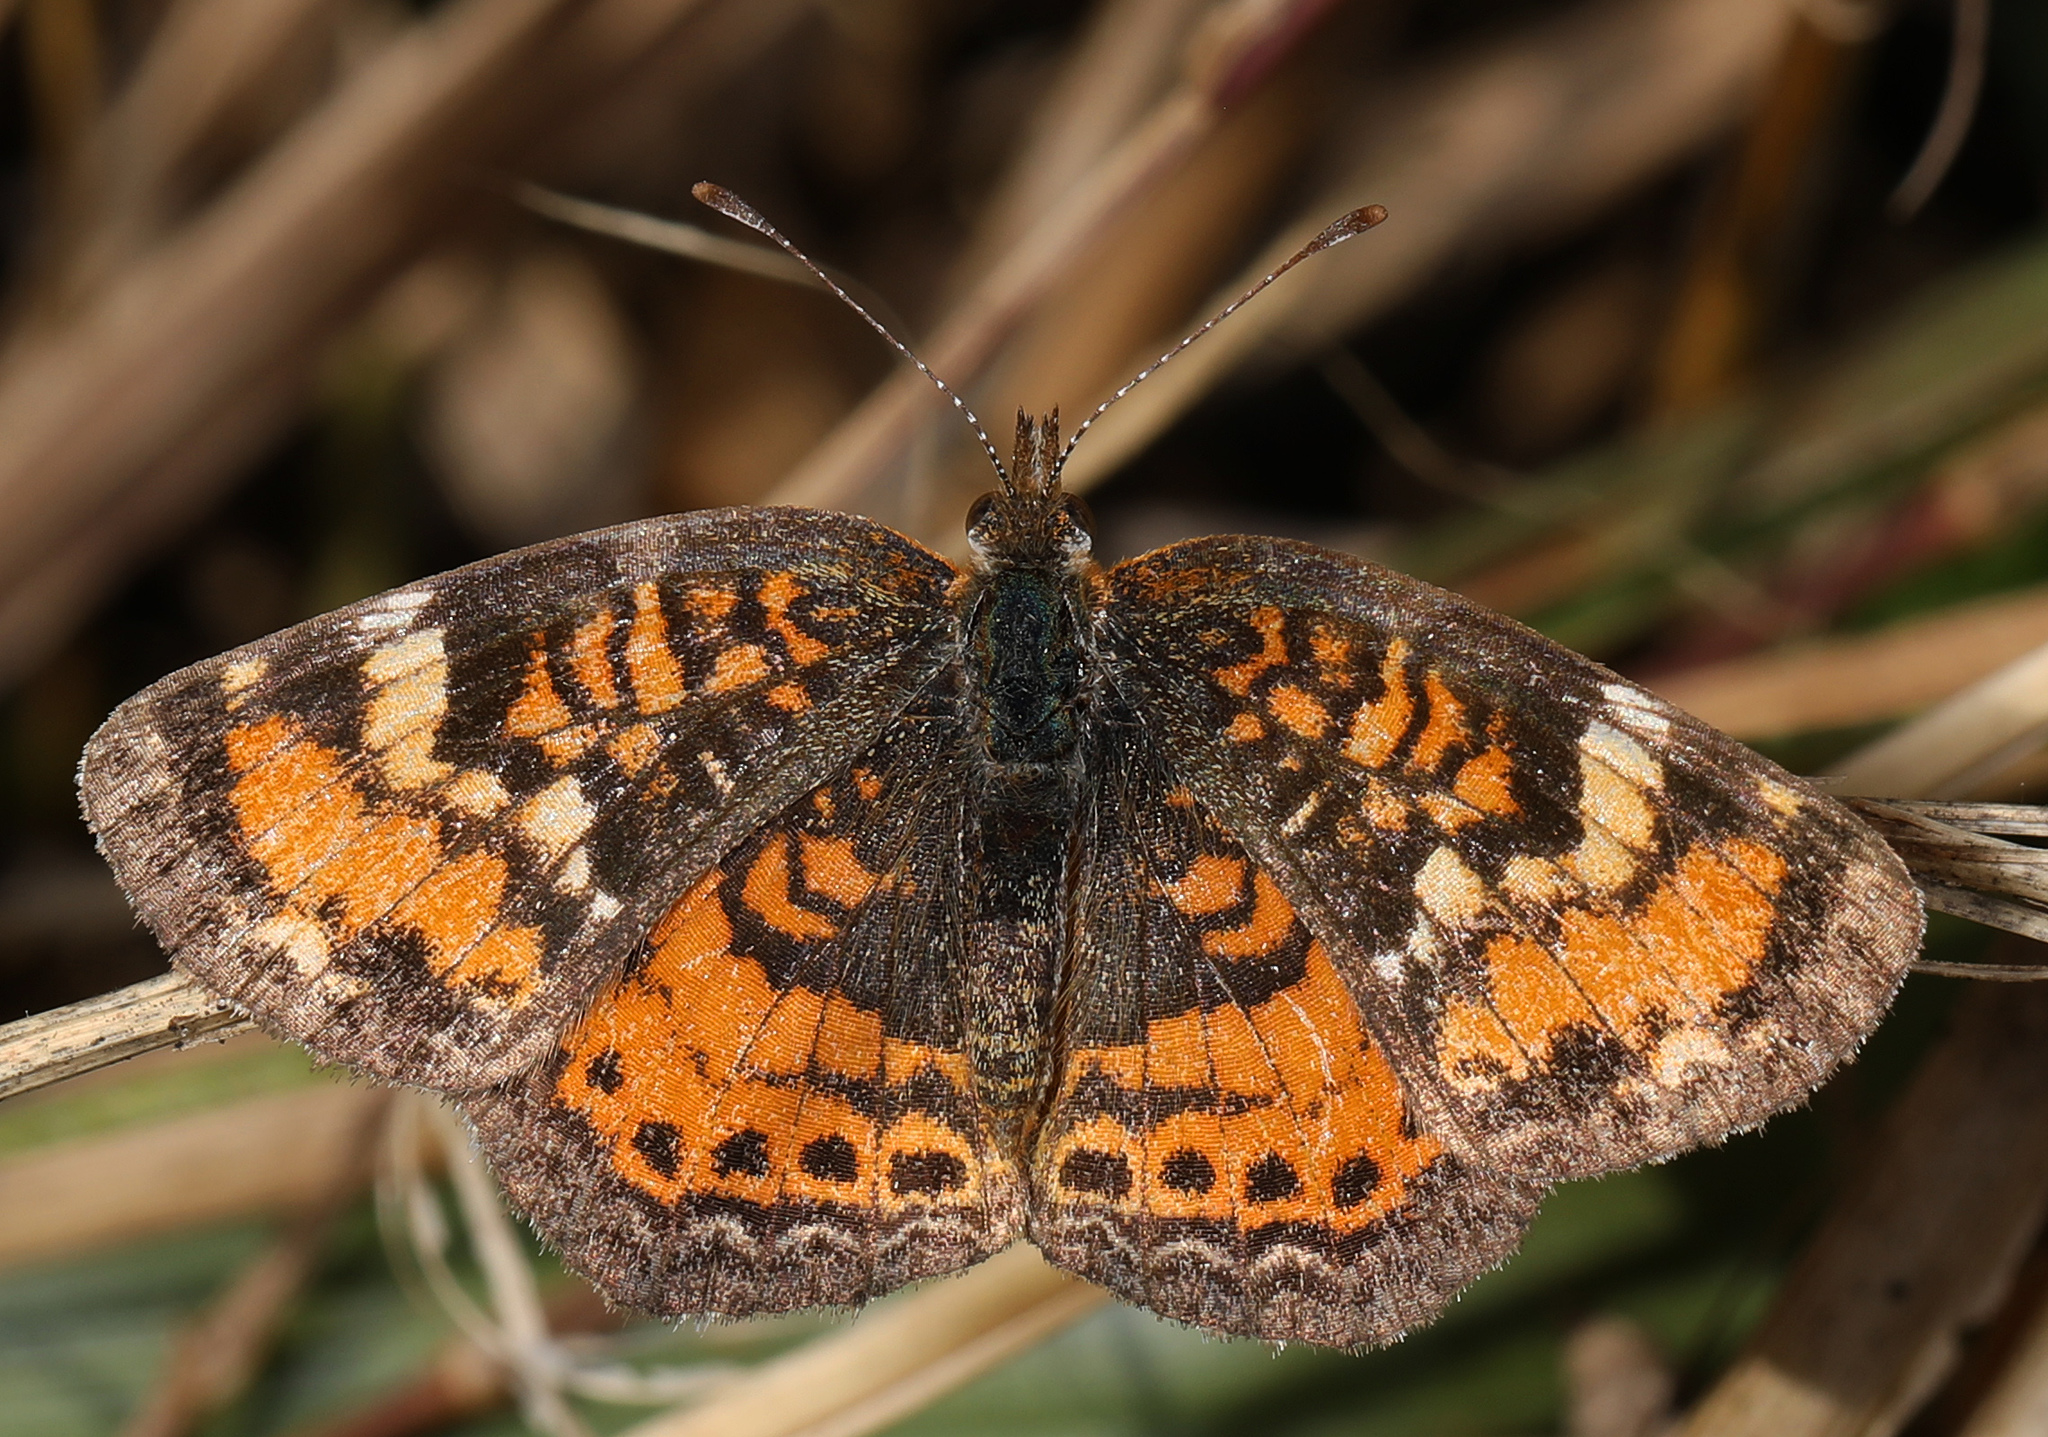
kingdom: Animalia
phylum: Arthropoda
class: Insecta
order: Lepidoptera
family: Nymphalidae
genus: Phyciodes
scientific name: Phyciodes phaon
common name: Phaon crescent
